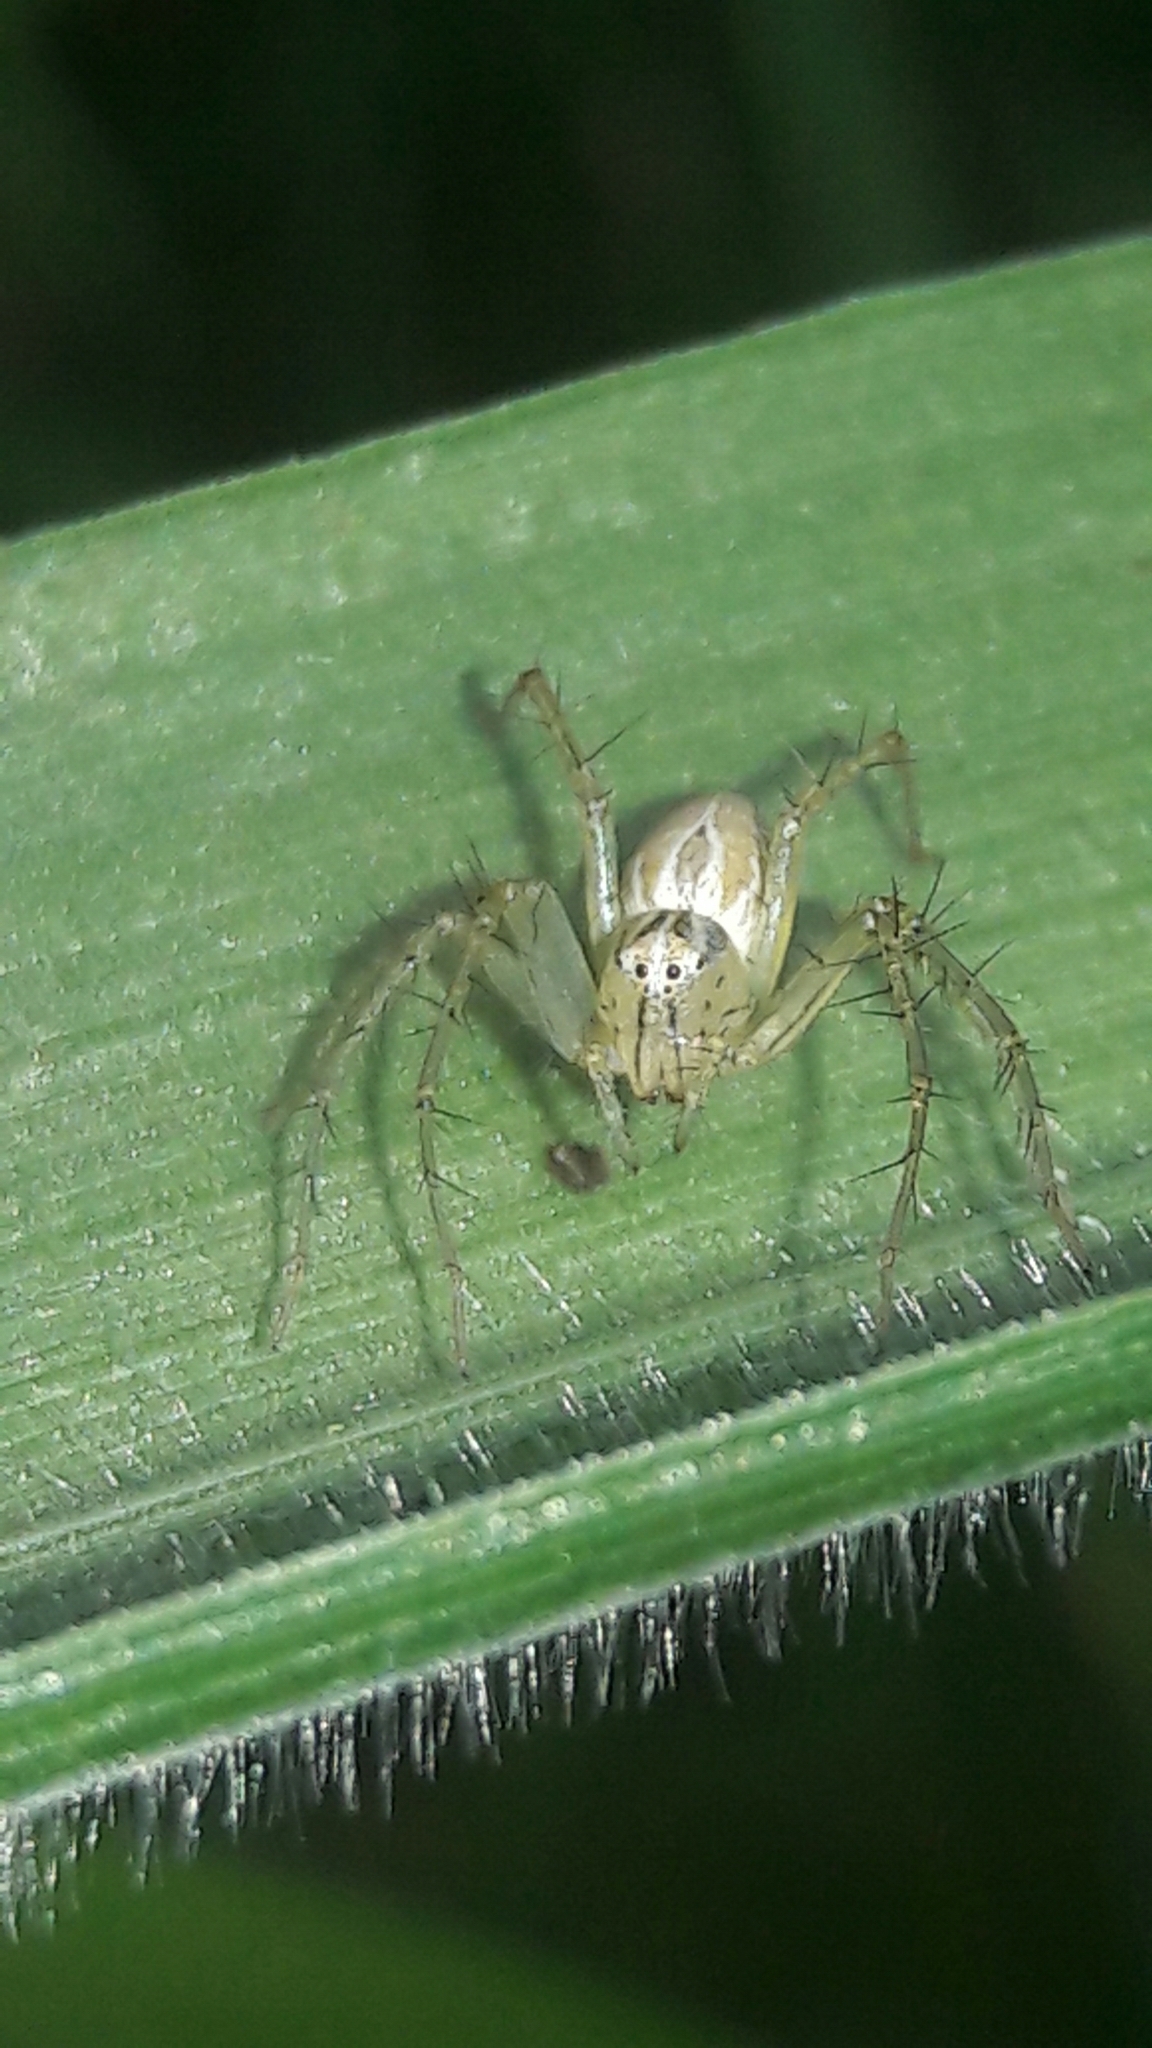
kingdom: Animalia
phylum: Arthropoda
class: Arachnida
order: Araneae
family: Oxyopidae
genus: Oxyopes
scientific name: Oxyopes salticus
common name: Lynx spiders
